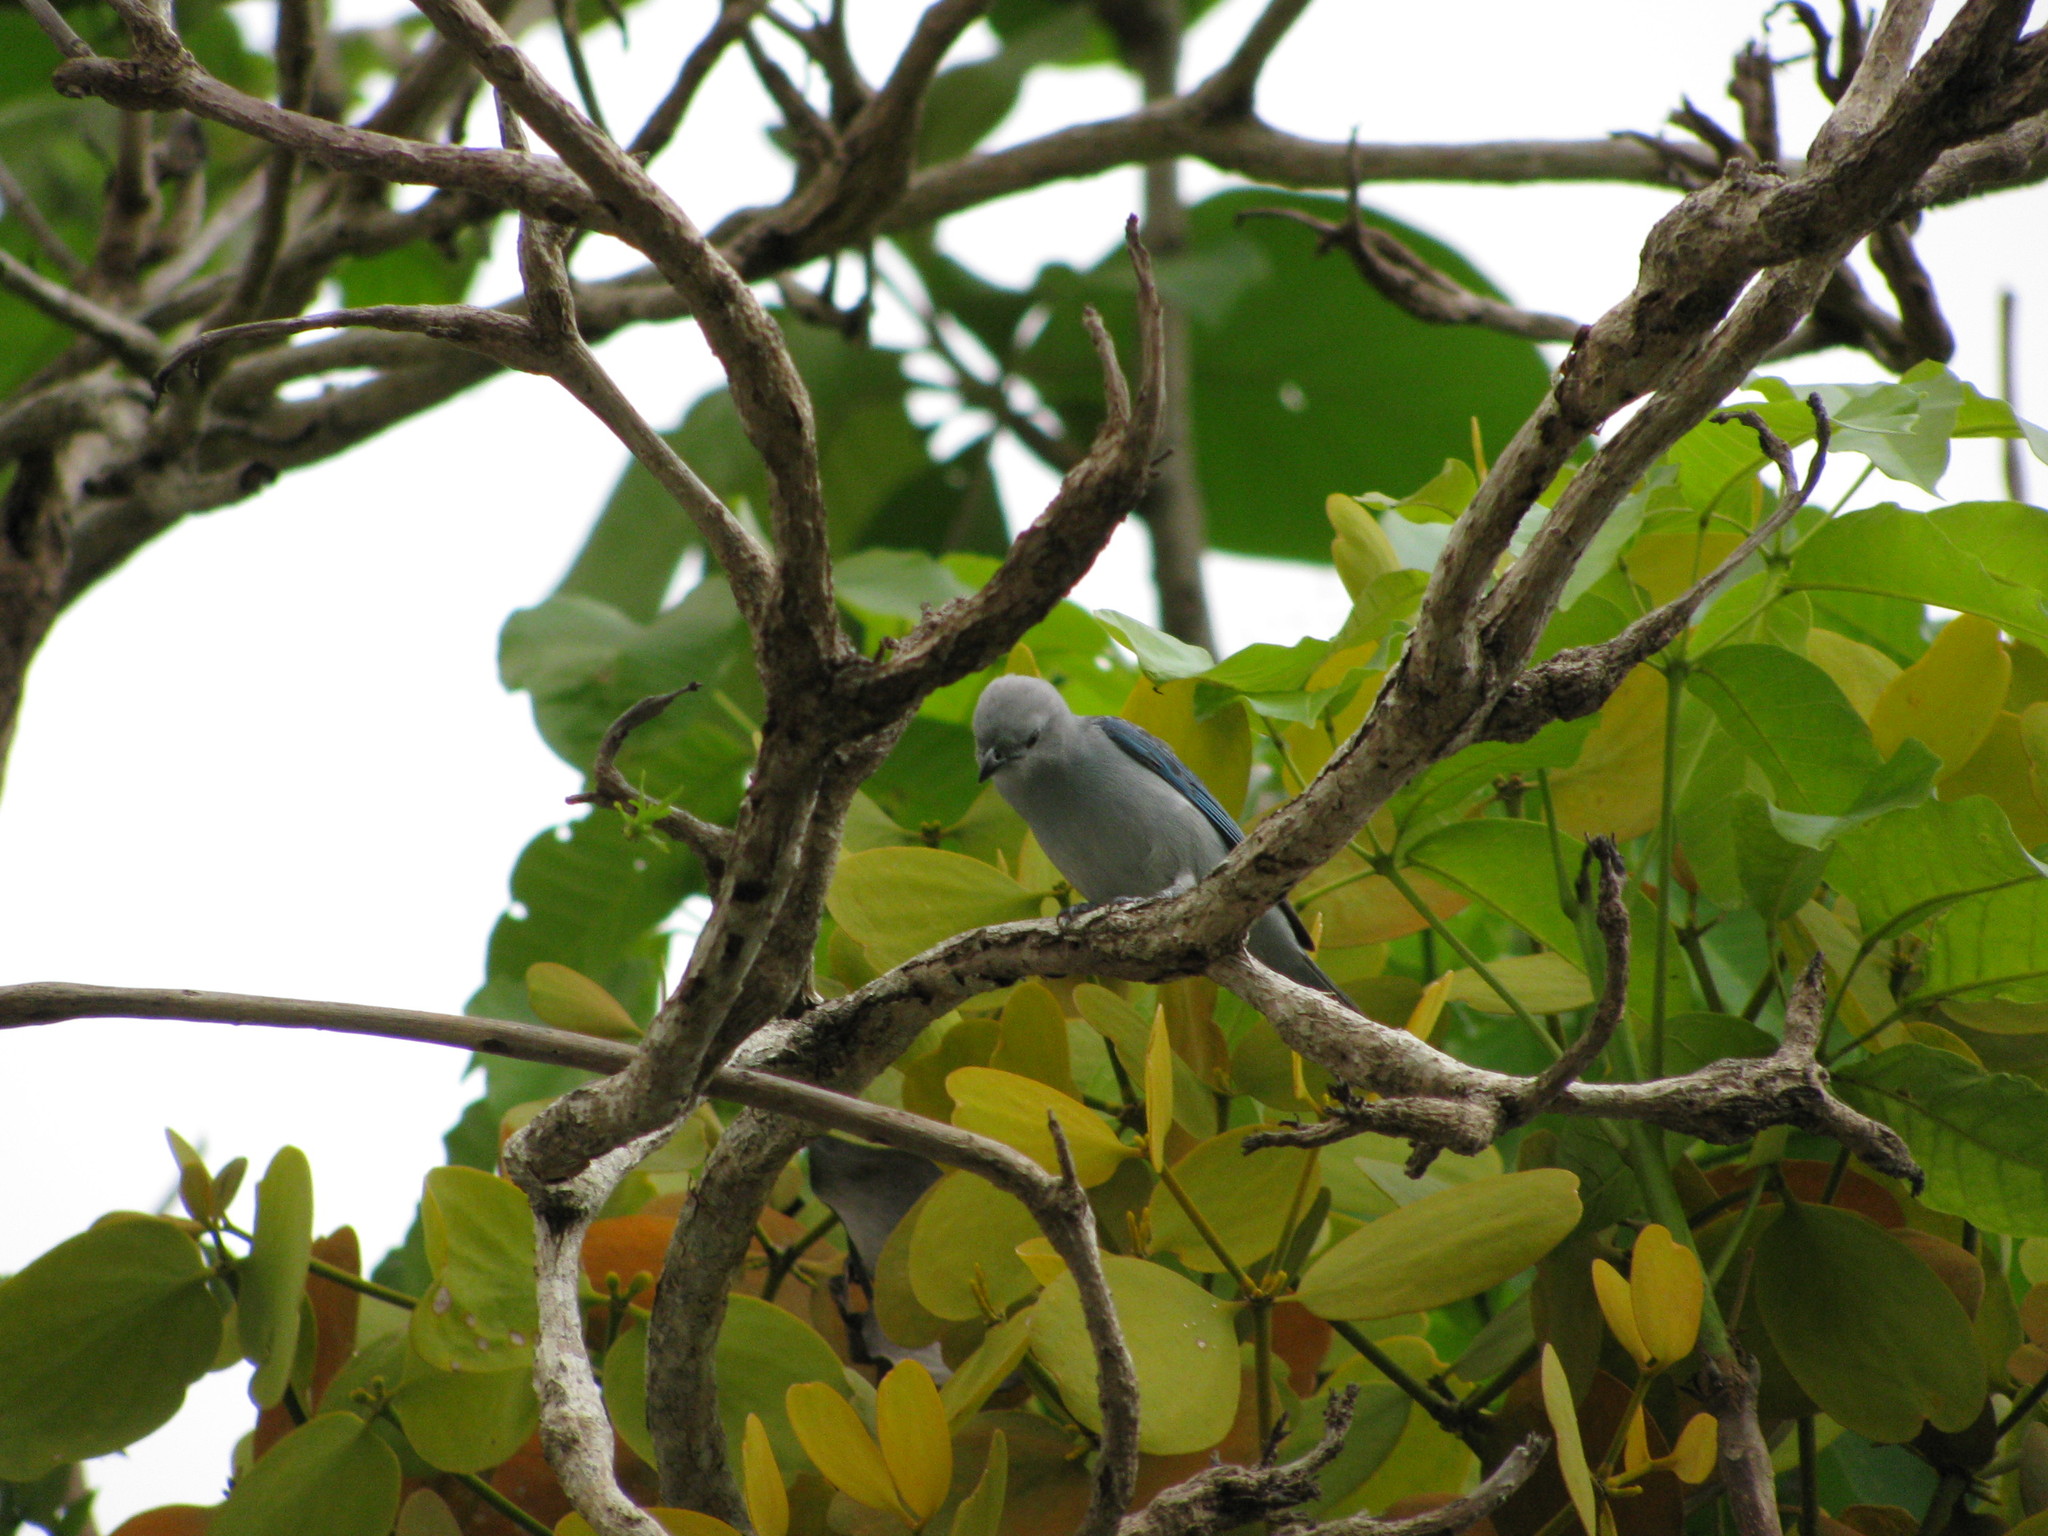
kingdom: Animalia
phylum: Chordata
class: Aves
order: Passeriformes
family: Thraupidae
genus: Thraupis
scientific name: Thraupis episcopus
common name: Blue-grey tanager
